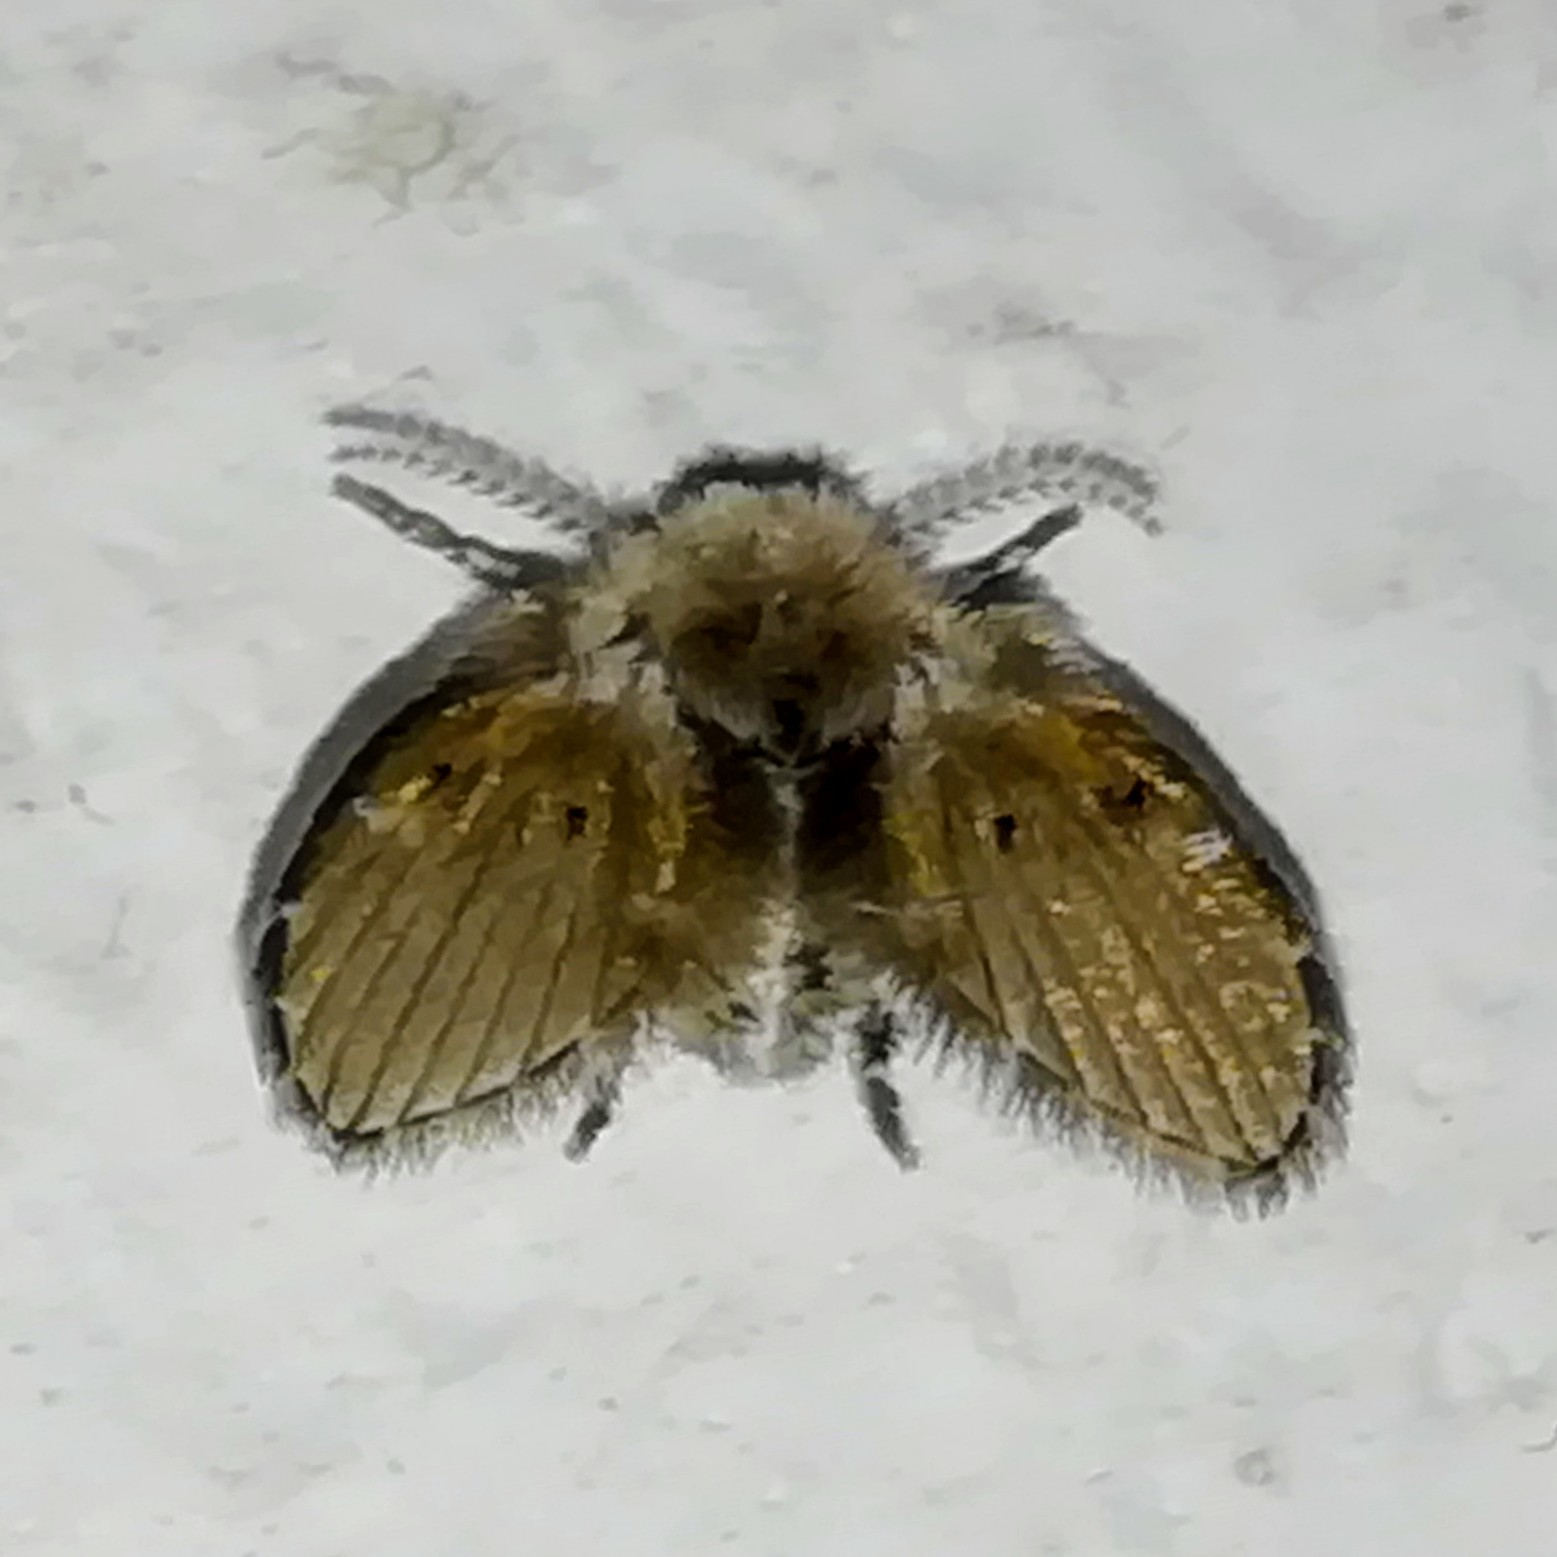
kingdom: Animalia
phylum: Arthropoda
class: Insecta
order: Diptera
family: Psychodidae
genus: Clogmia
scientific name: Clogmia albipunctatus
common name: White-spotted moth fly
